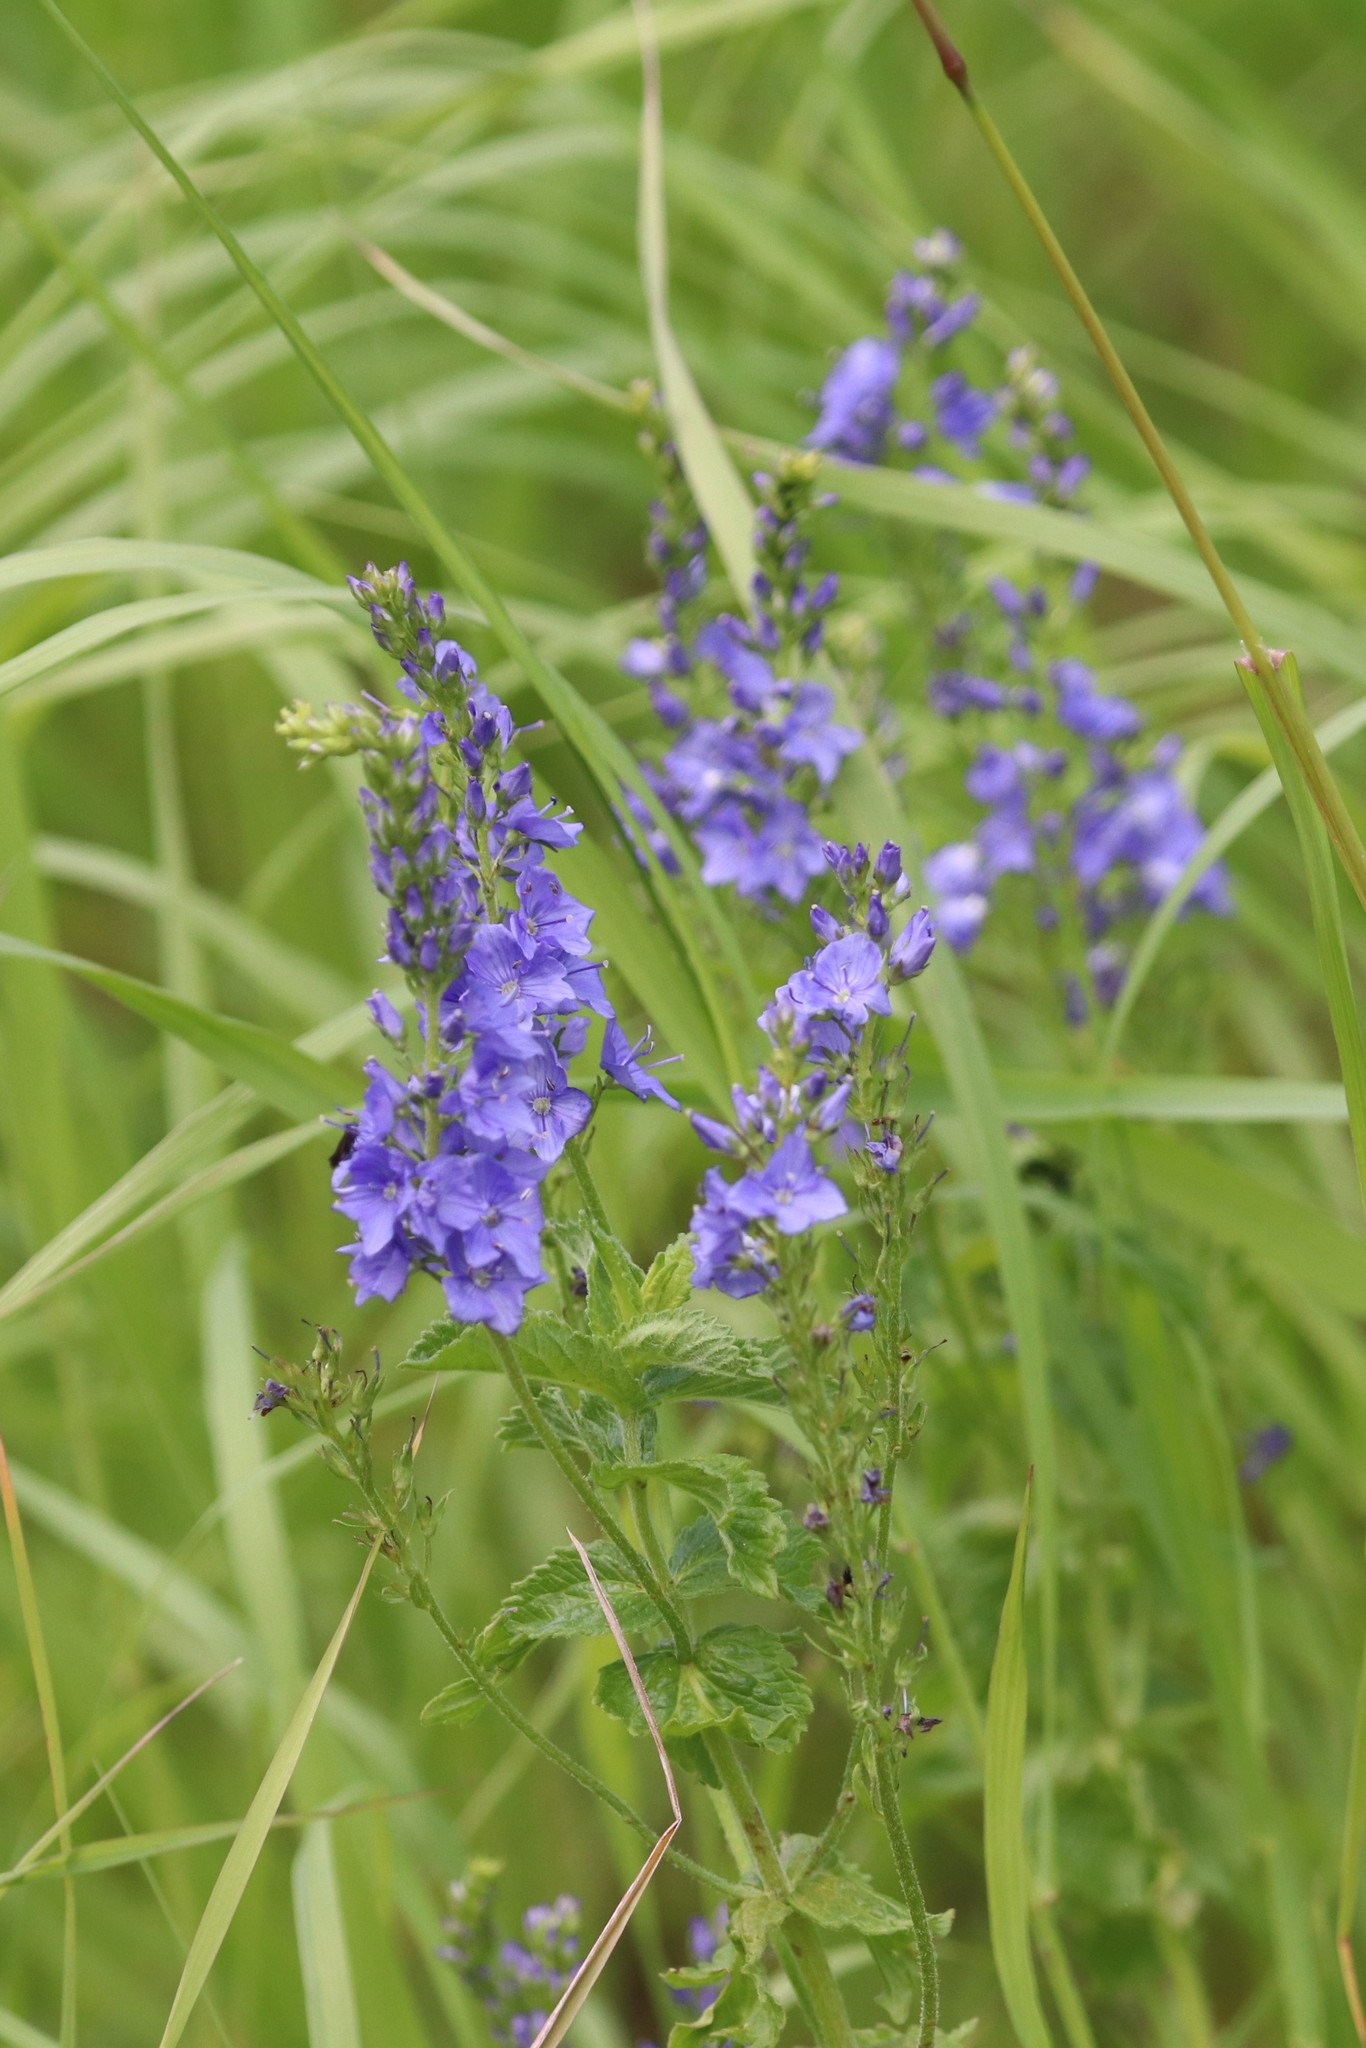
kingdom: Plantae
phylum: Tracheophyta
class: Magnoliopsida
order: Lamiales
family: Plantaginaceae
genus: Veronica
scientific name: Veronica teucrium
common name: Large speedwell
